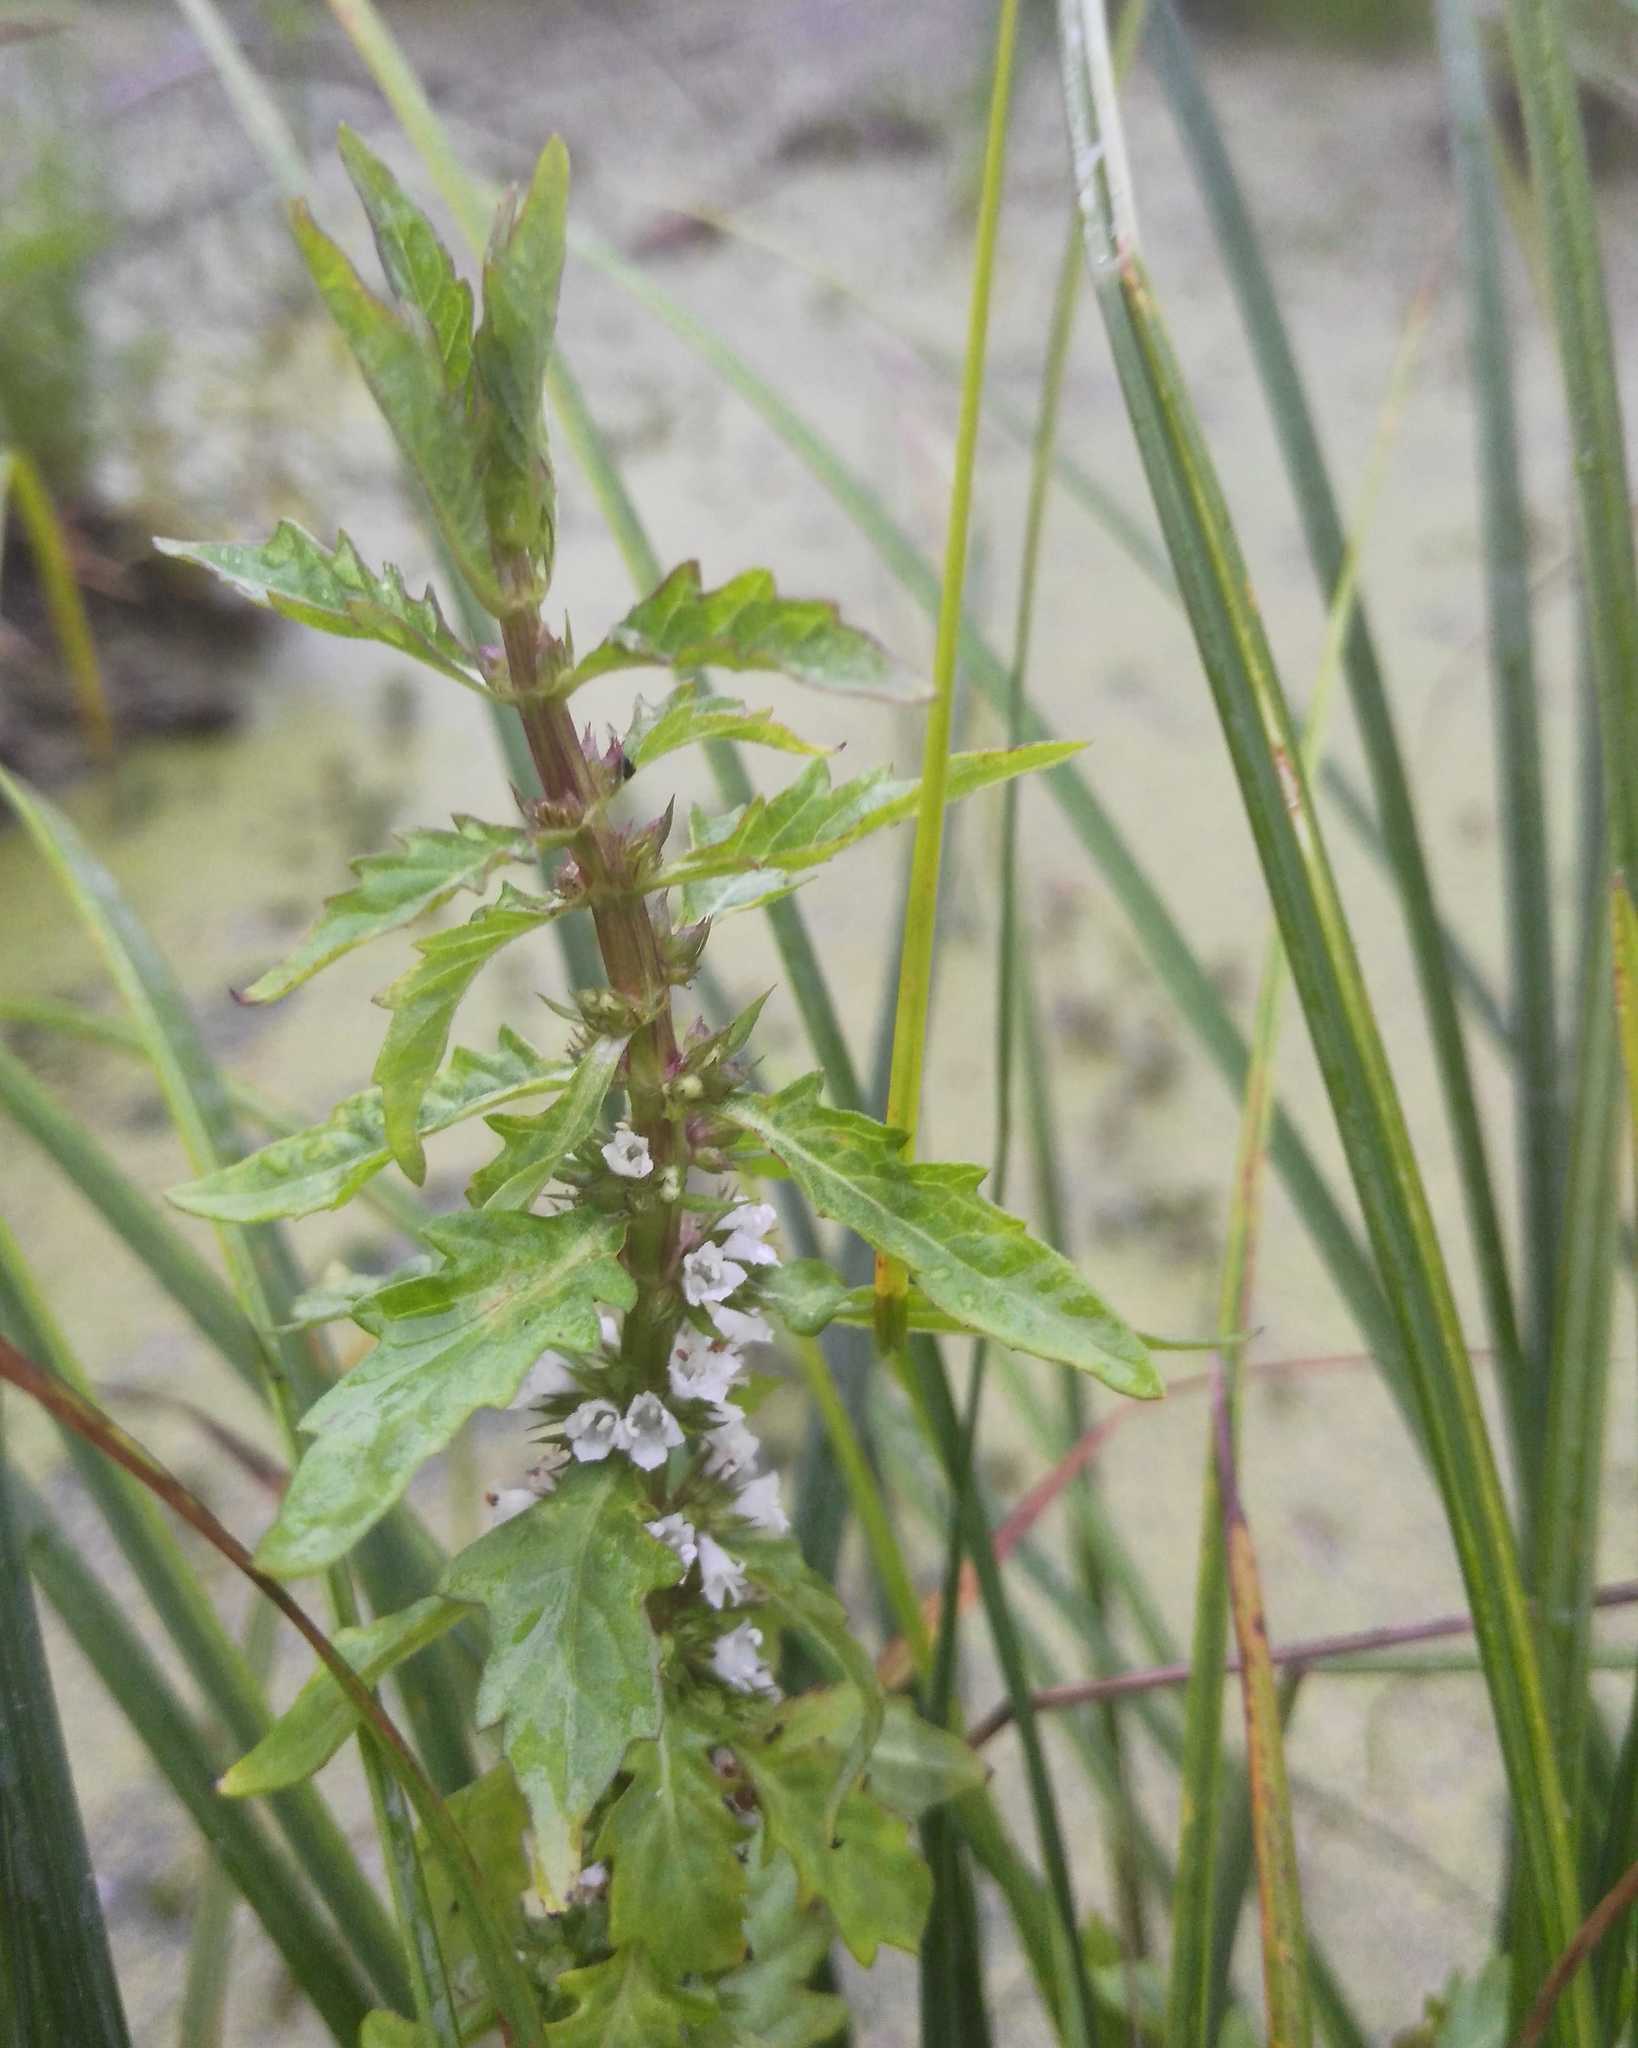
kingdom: Plantae
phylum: Tracheophyta
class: Magnoliopsida
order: Lamiales
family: Lamiaceae
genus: Lycopus
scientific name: Lycopus europaeus
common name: European bugleweed
